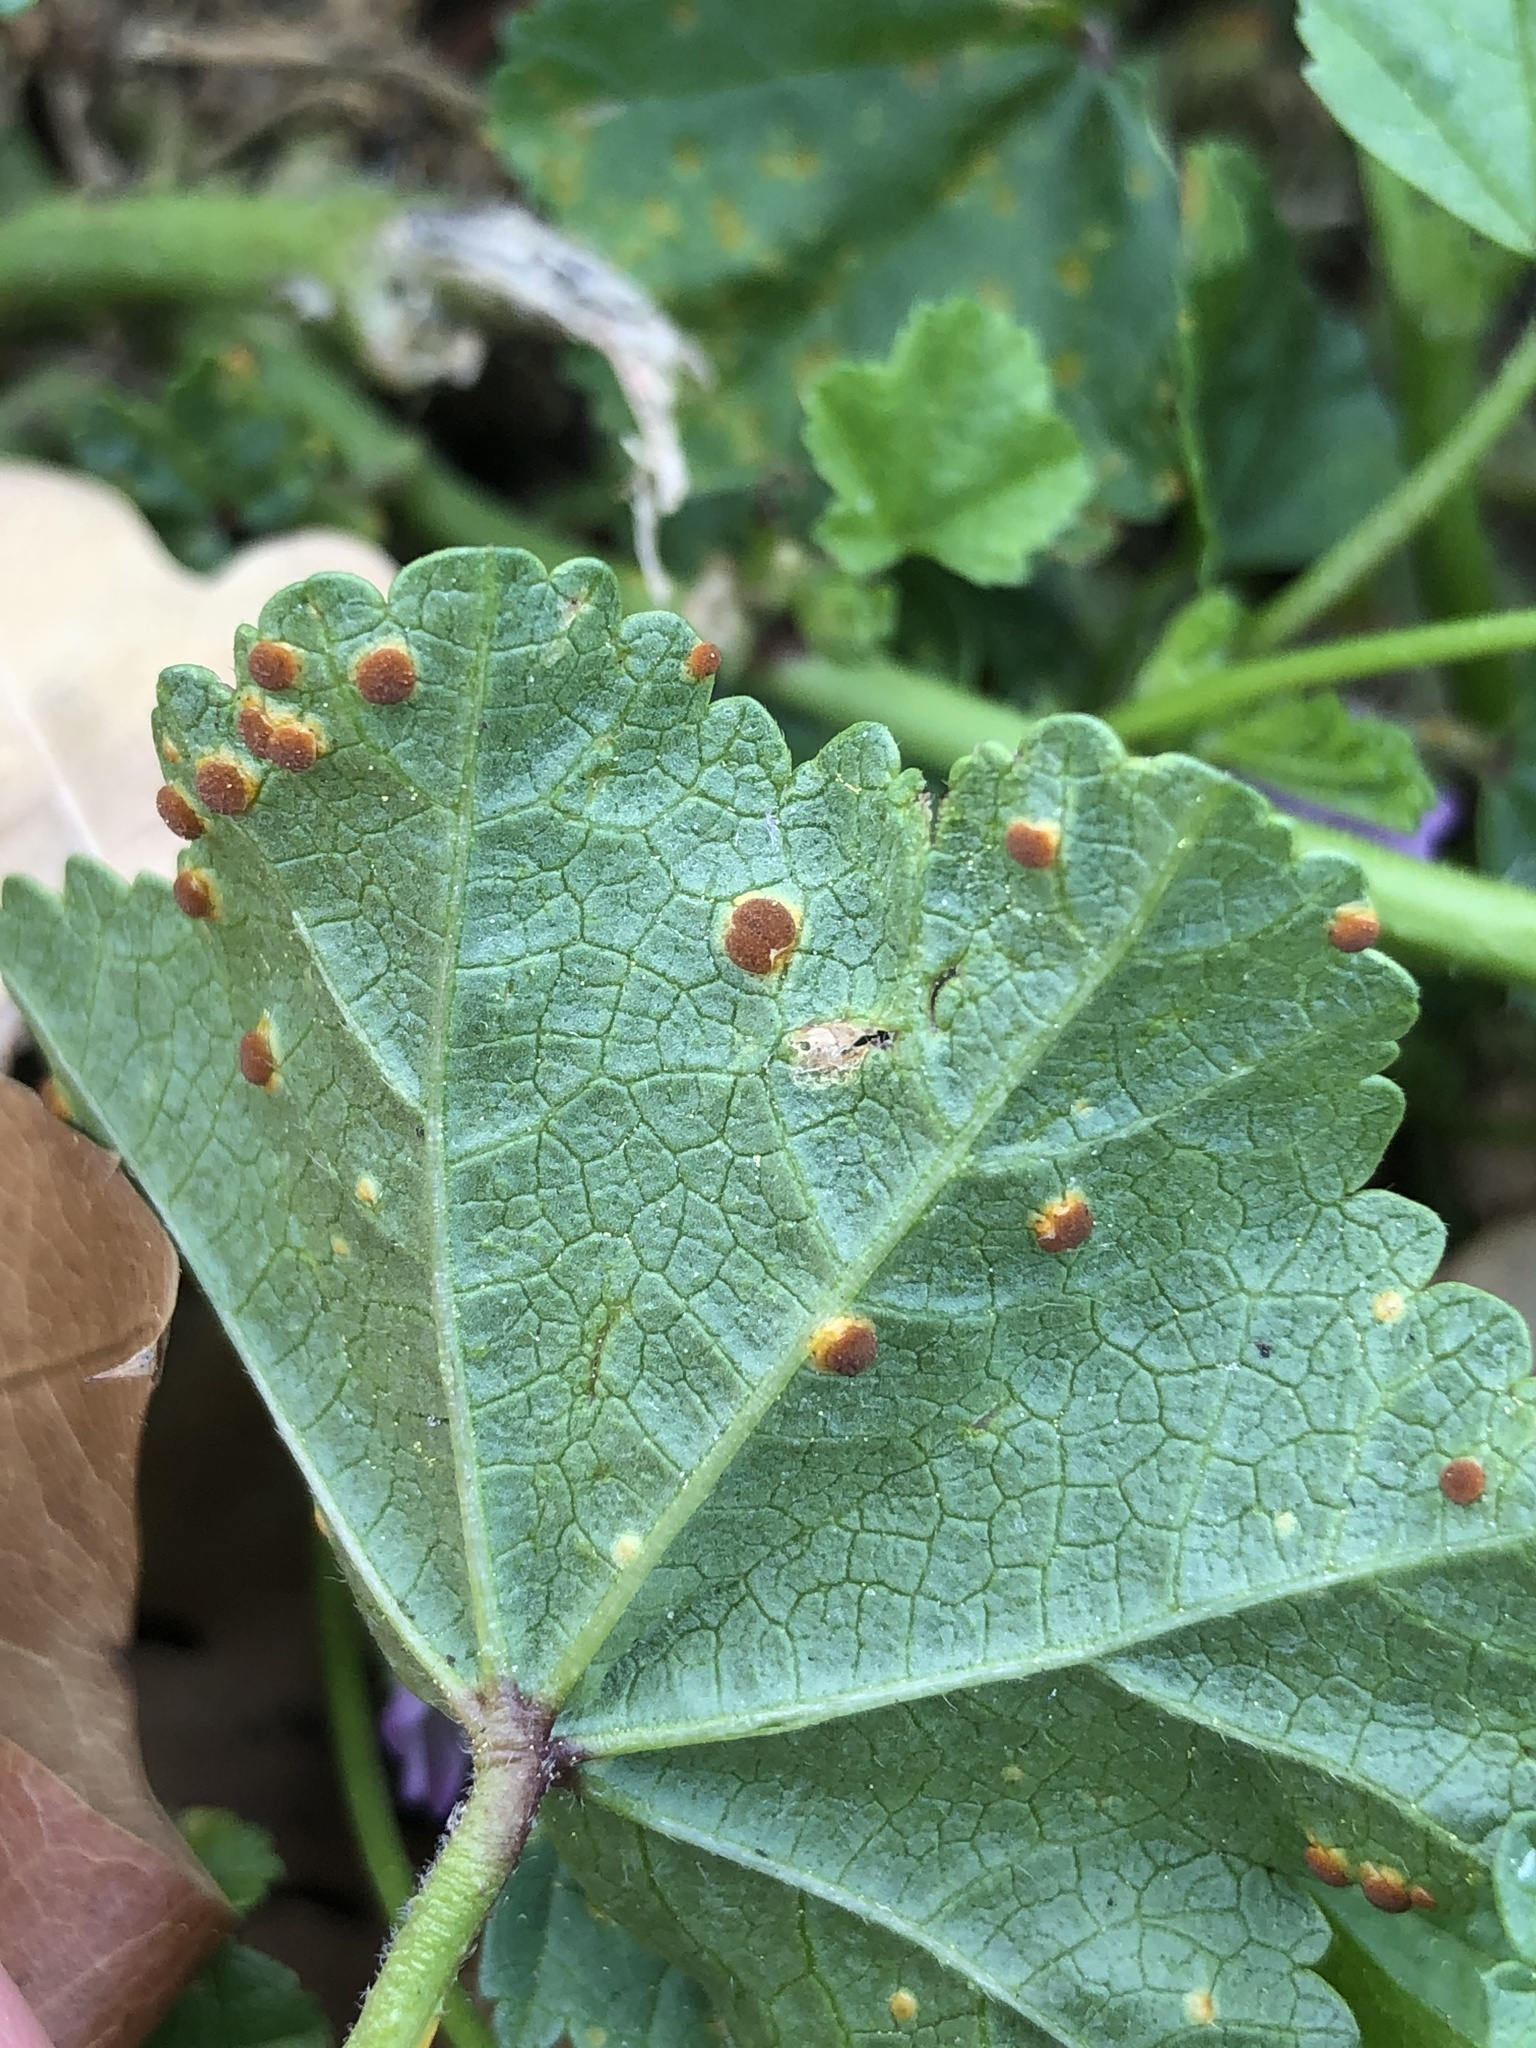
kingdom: Plantae
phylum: Tracheophyta
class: Magnoliopsida
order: Malvales
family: Malvaceae
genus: Malva
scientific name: Malva nicaeensis
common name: French mallow
